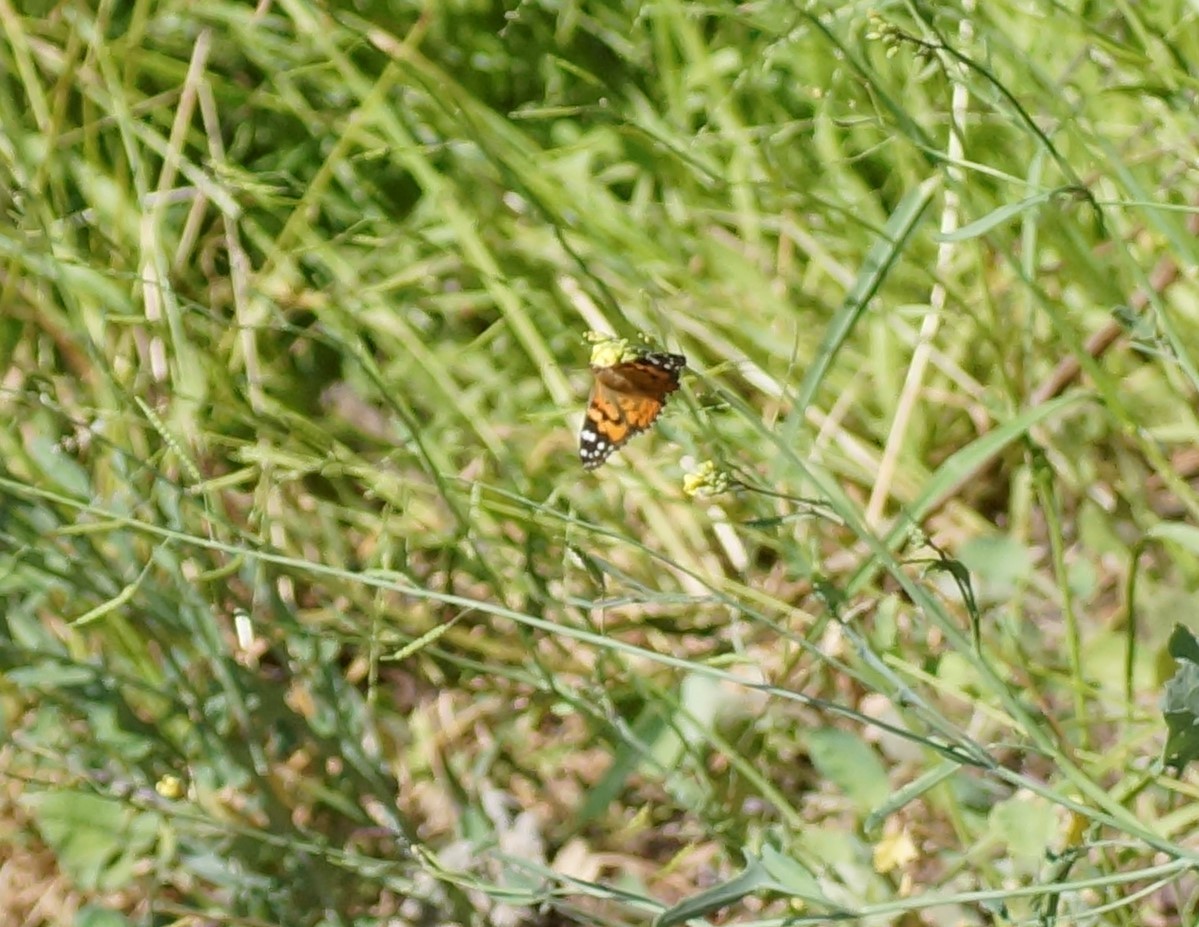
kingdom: Animalia
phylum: Arthropoda
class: Insecta
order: Lepidoptera
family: Nymphalidae
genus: Vanessa
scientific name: Vanessa kershawi
